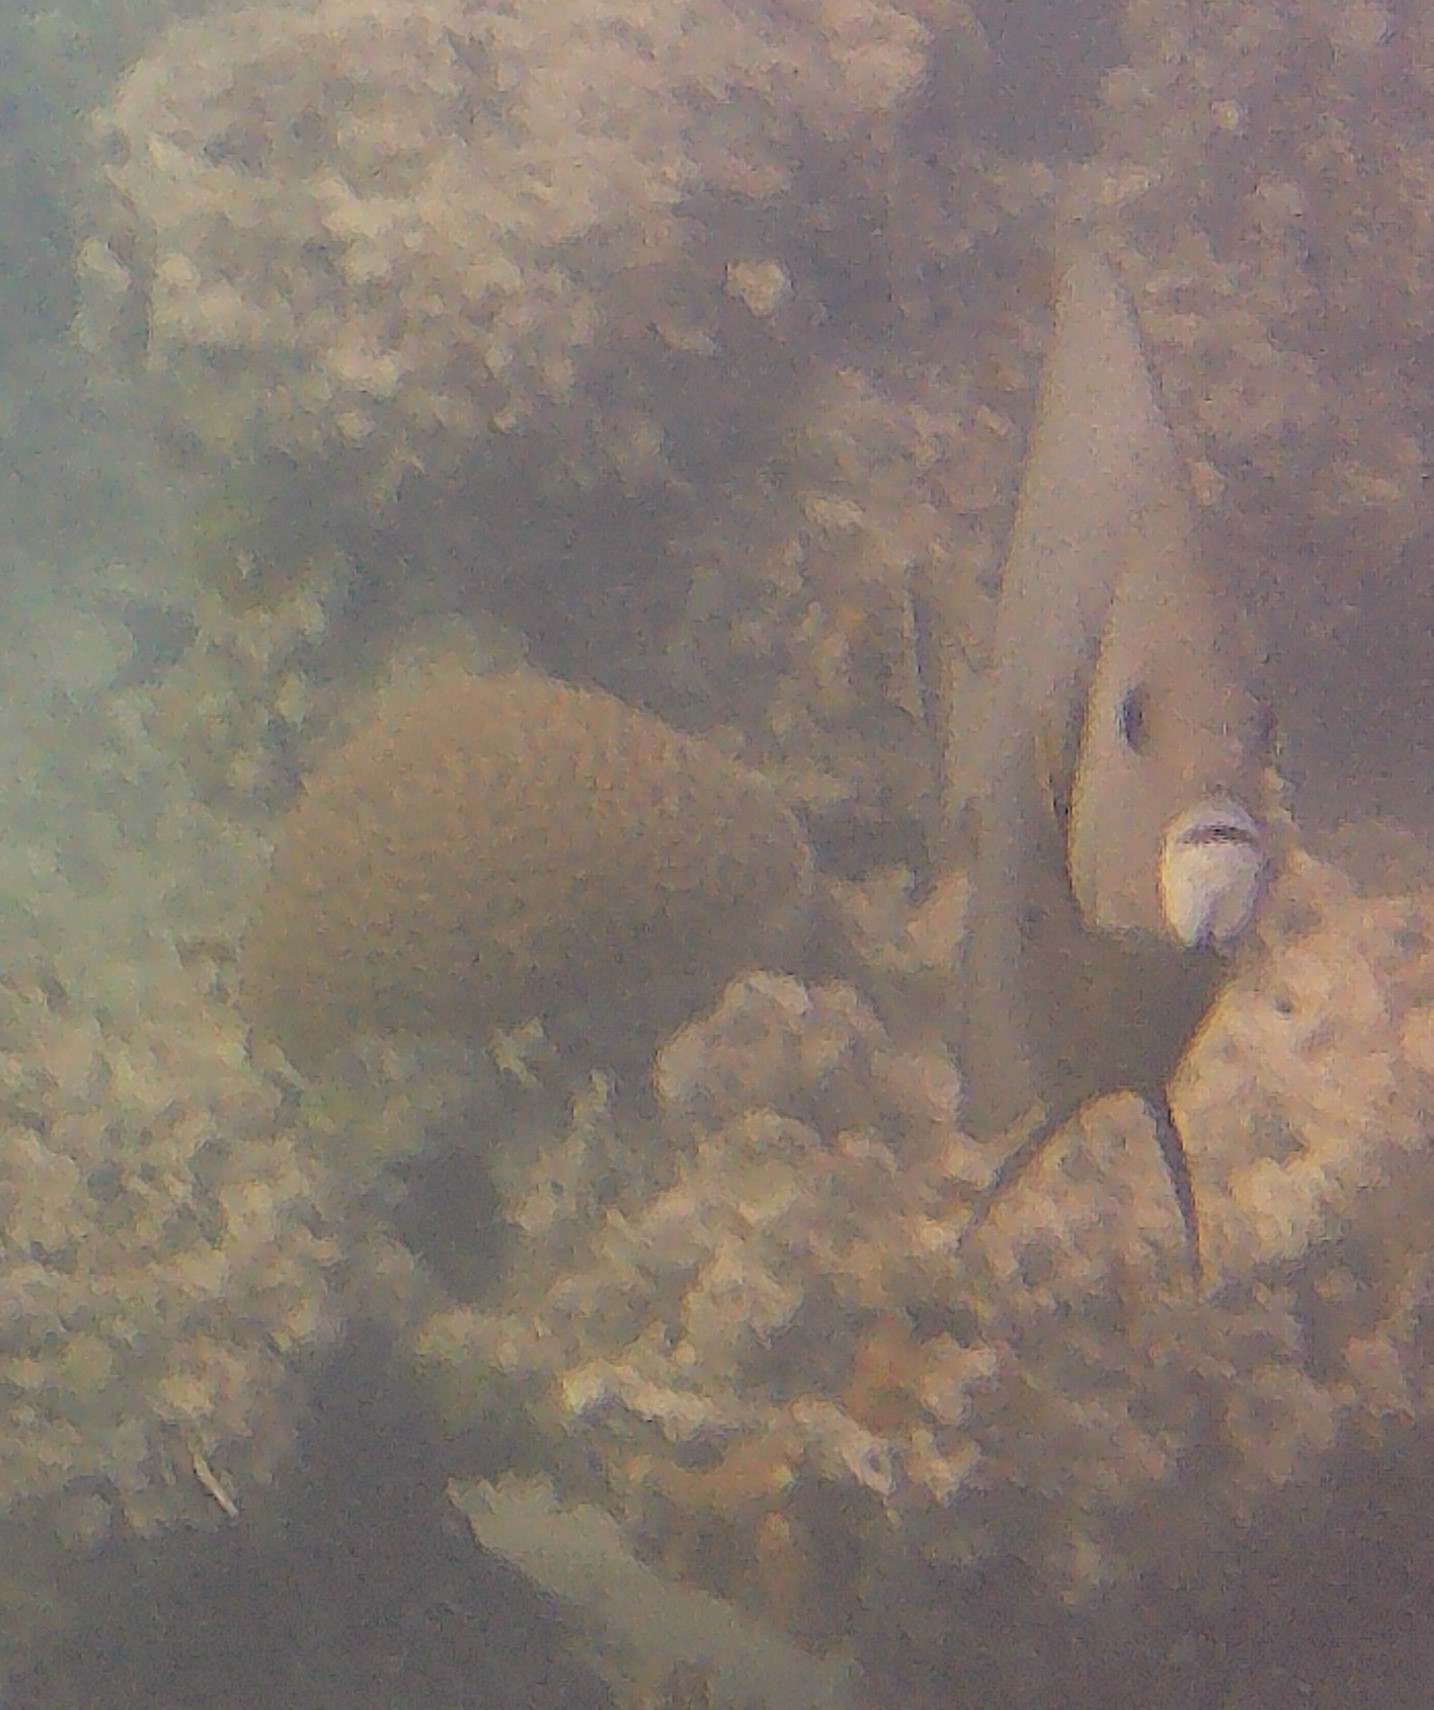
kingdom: Animalia
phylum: Chordata
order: Perciformes
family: Pomacanthidae
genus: Pomacanthus
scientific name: Pomacanthus arcuatus
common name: Gray angelfish
